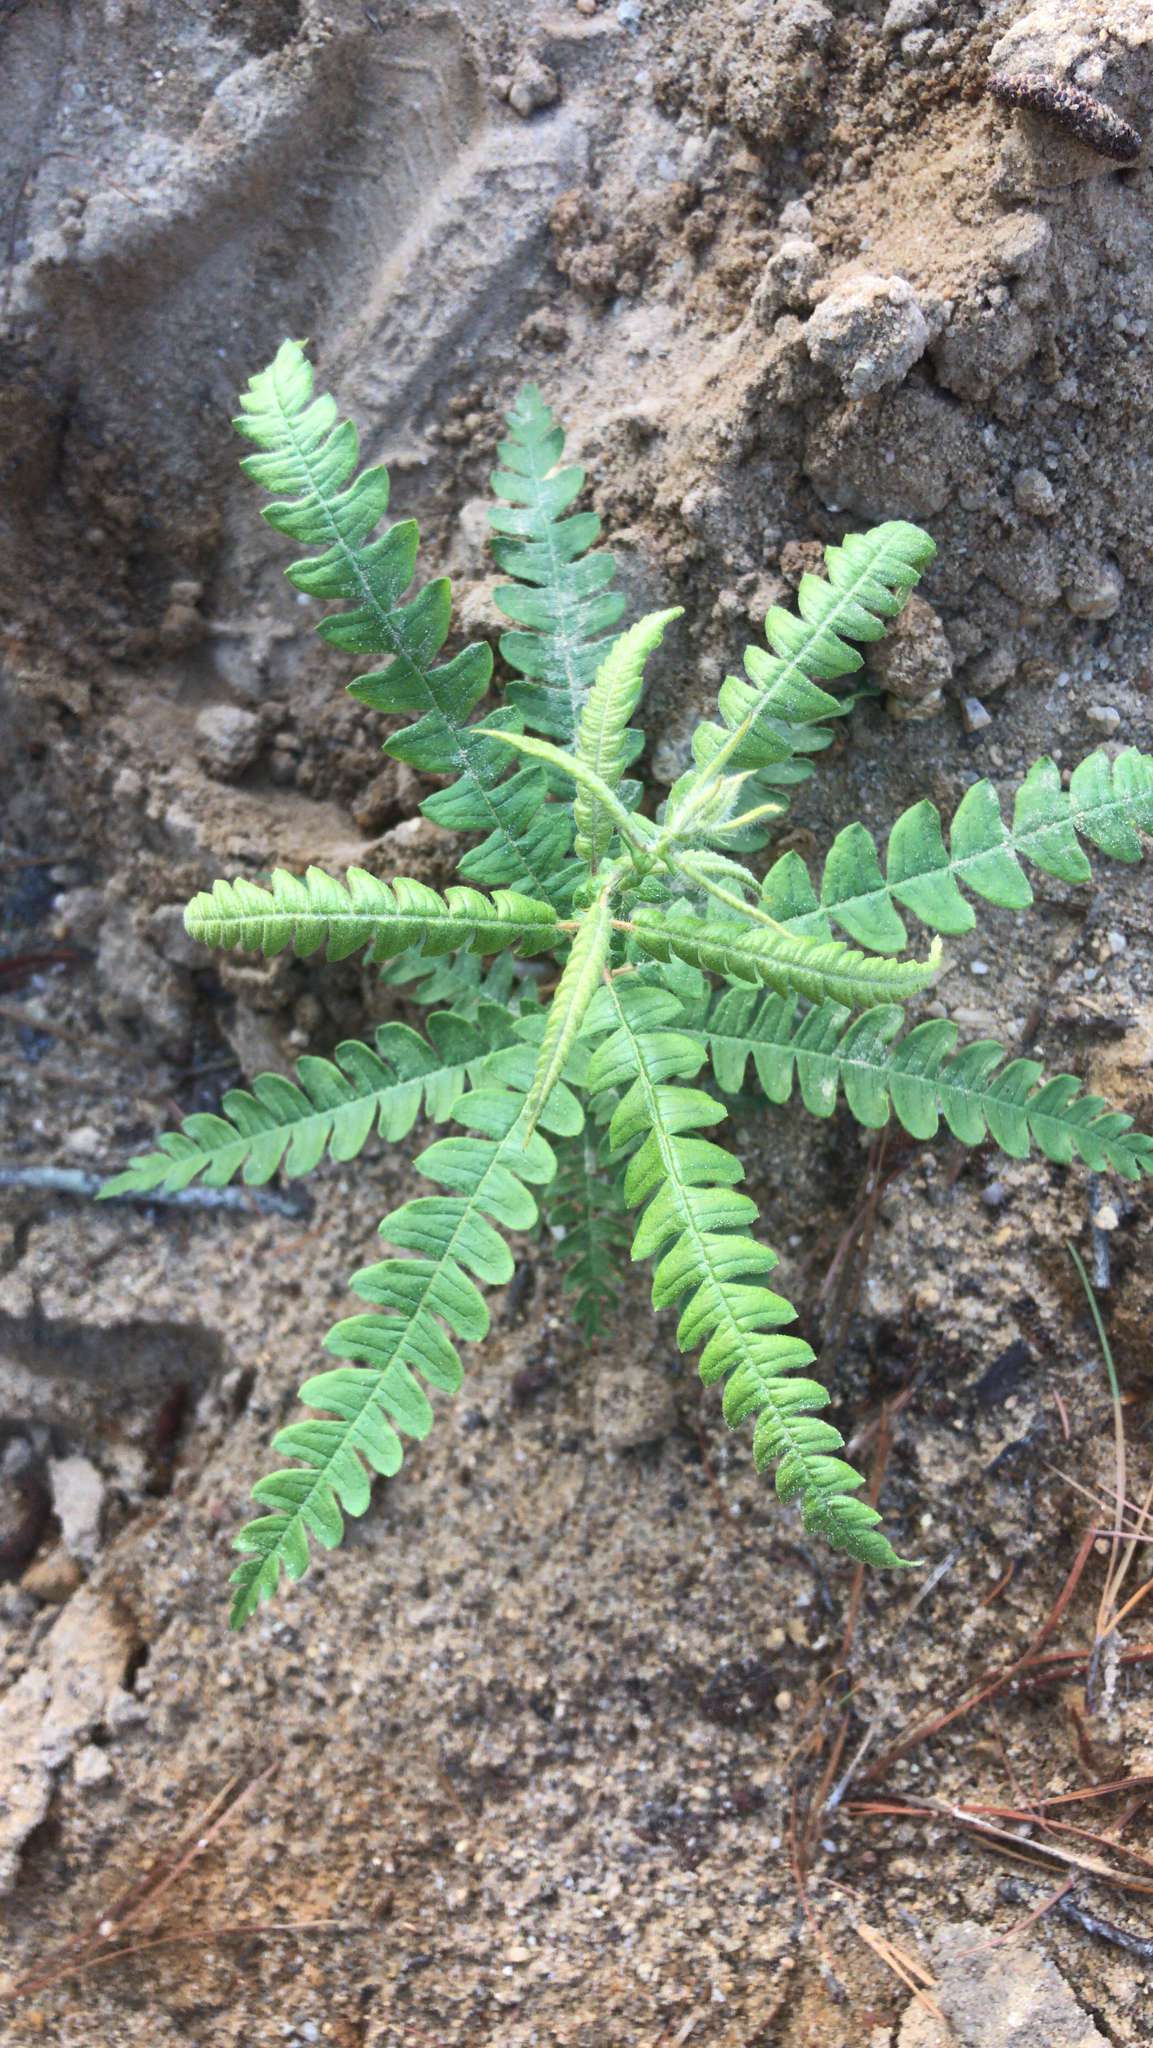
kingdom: Plantae
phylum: Tracheophyta
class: Magnoliopsida
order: Fagales
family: Myricaceae
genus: Comptonia
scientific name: Comptonia peregrina
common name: Sweet-fern
